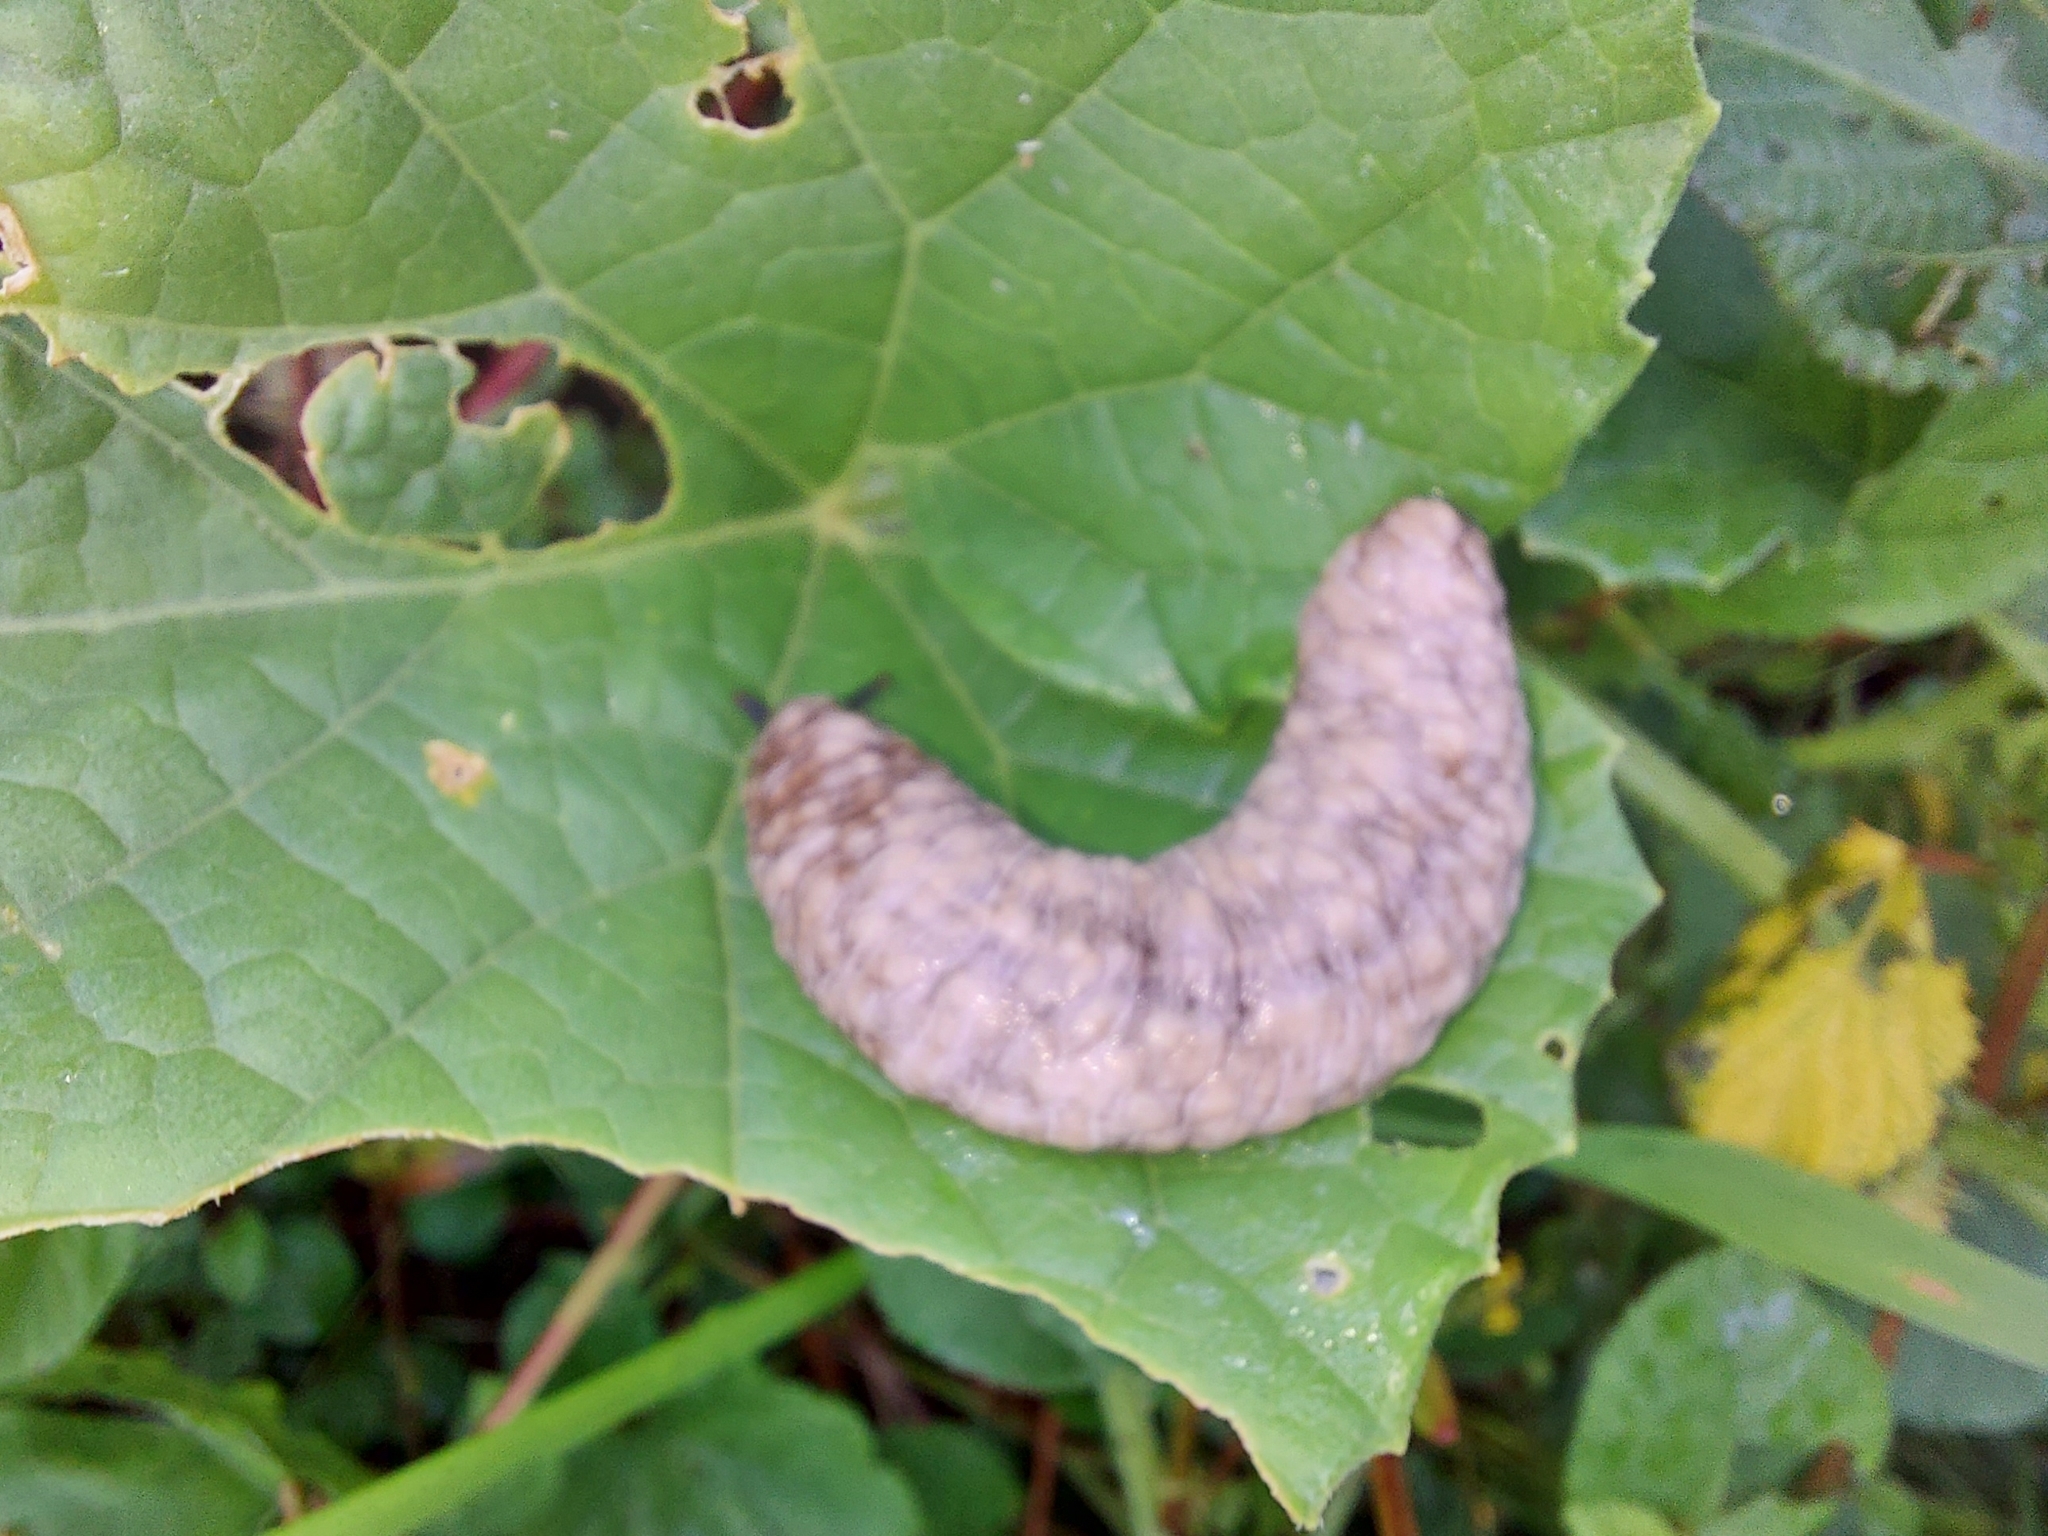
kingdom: Animalia
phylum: Mollusca
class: Gastropoda
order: Systellommatophora
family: Veronicellidae
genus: Laevicaulis
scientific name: Laevicaulis haroldi
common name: Caterpillar slug
